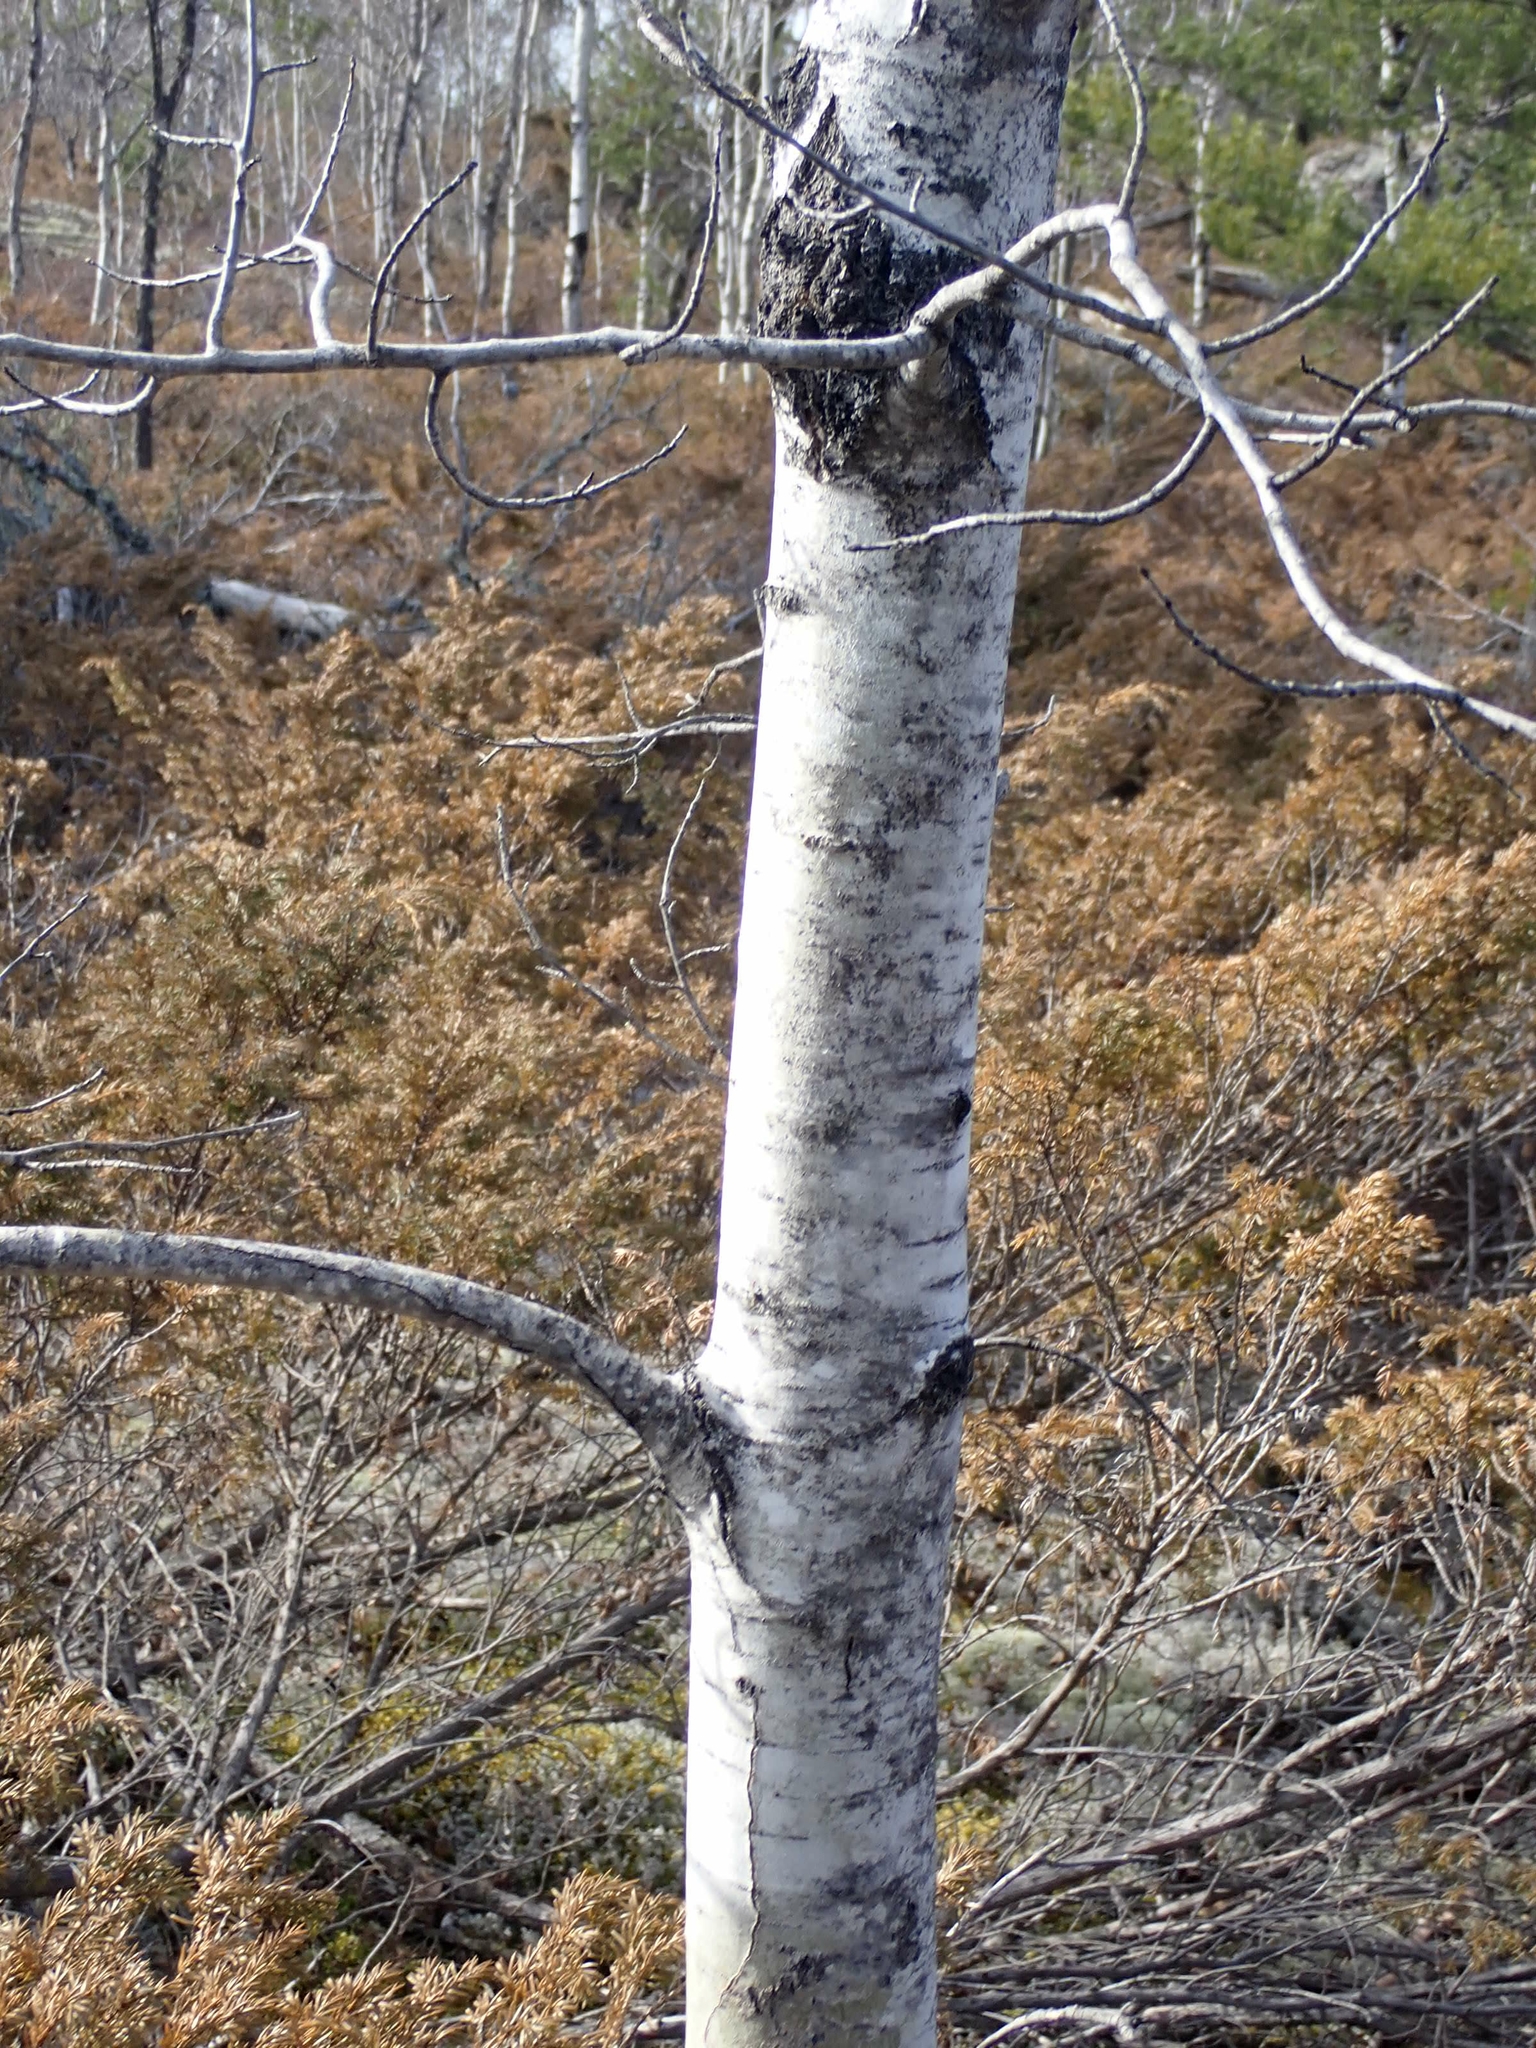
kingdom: Plantae
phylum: Tracheophyta
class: Magnoliopsida
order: Malpighiales
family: Salicaceae
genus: Populus
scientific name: Populus tremuloides
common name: Quaking aspen
